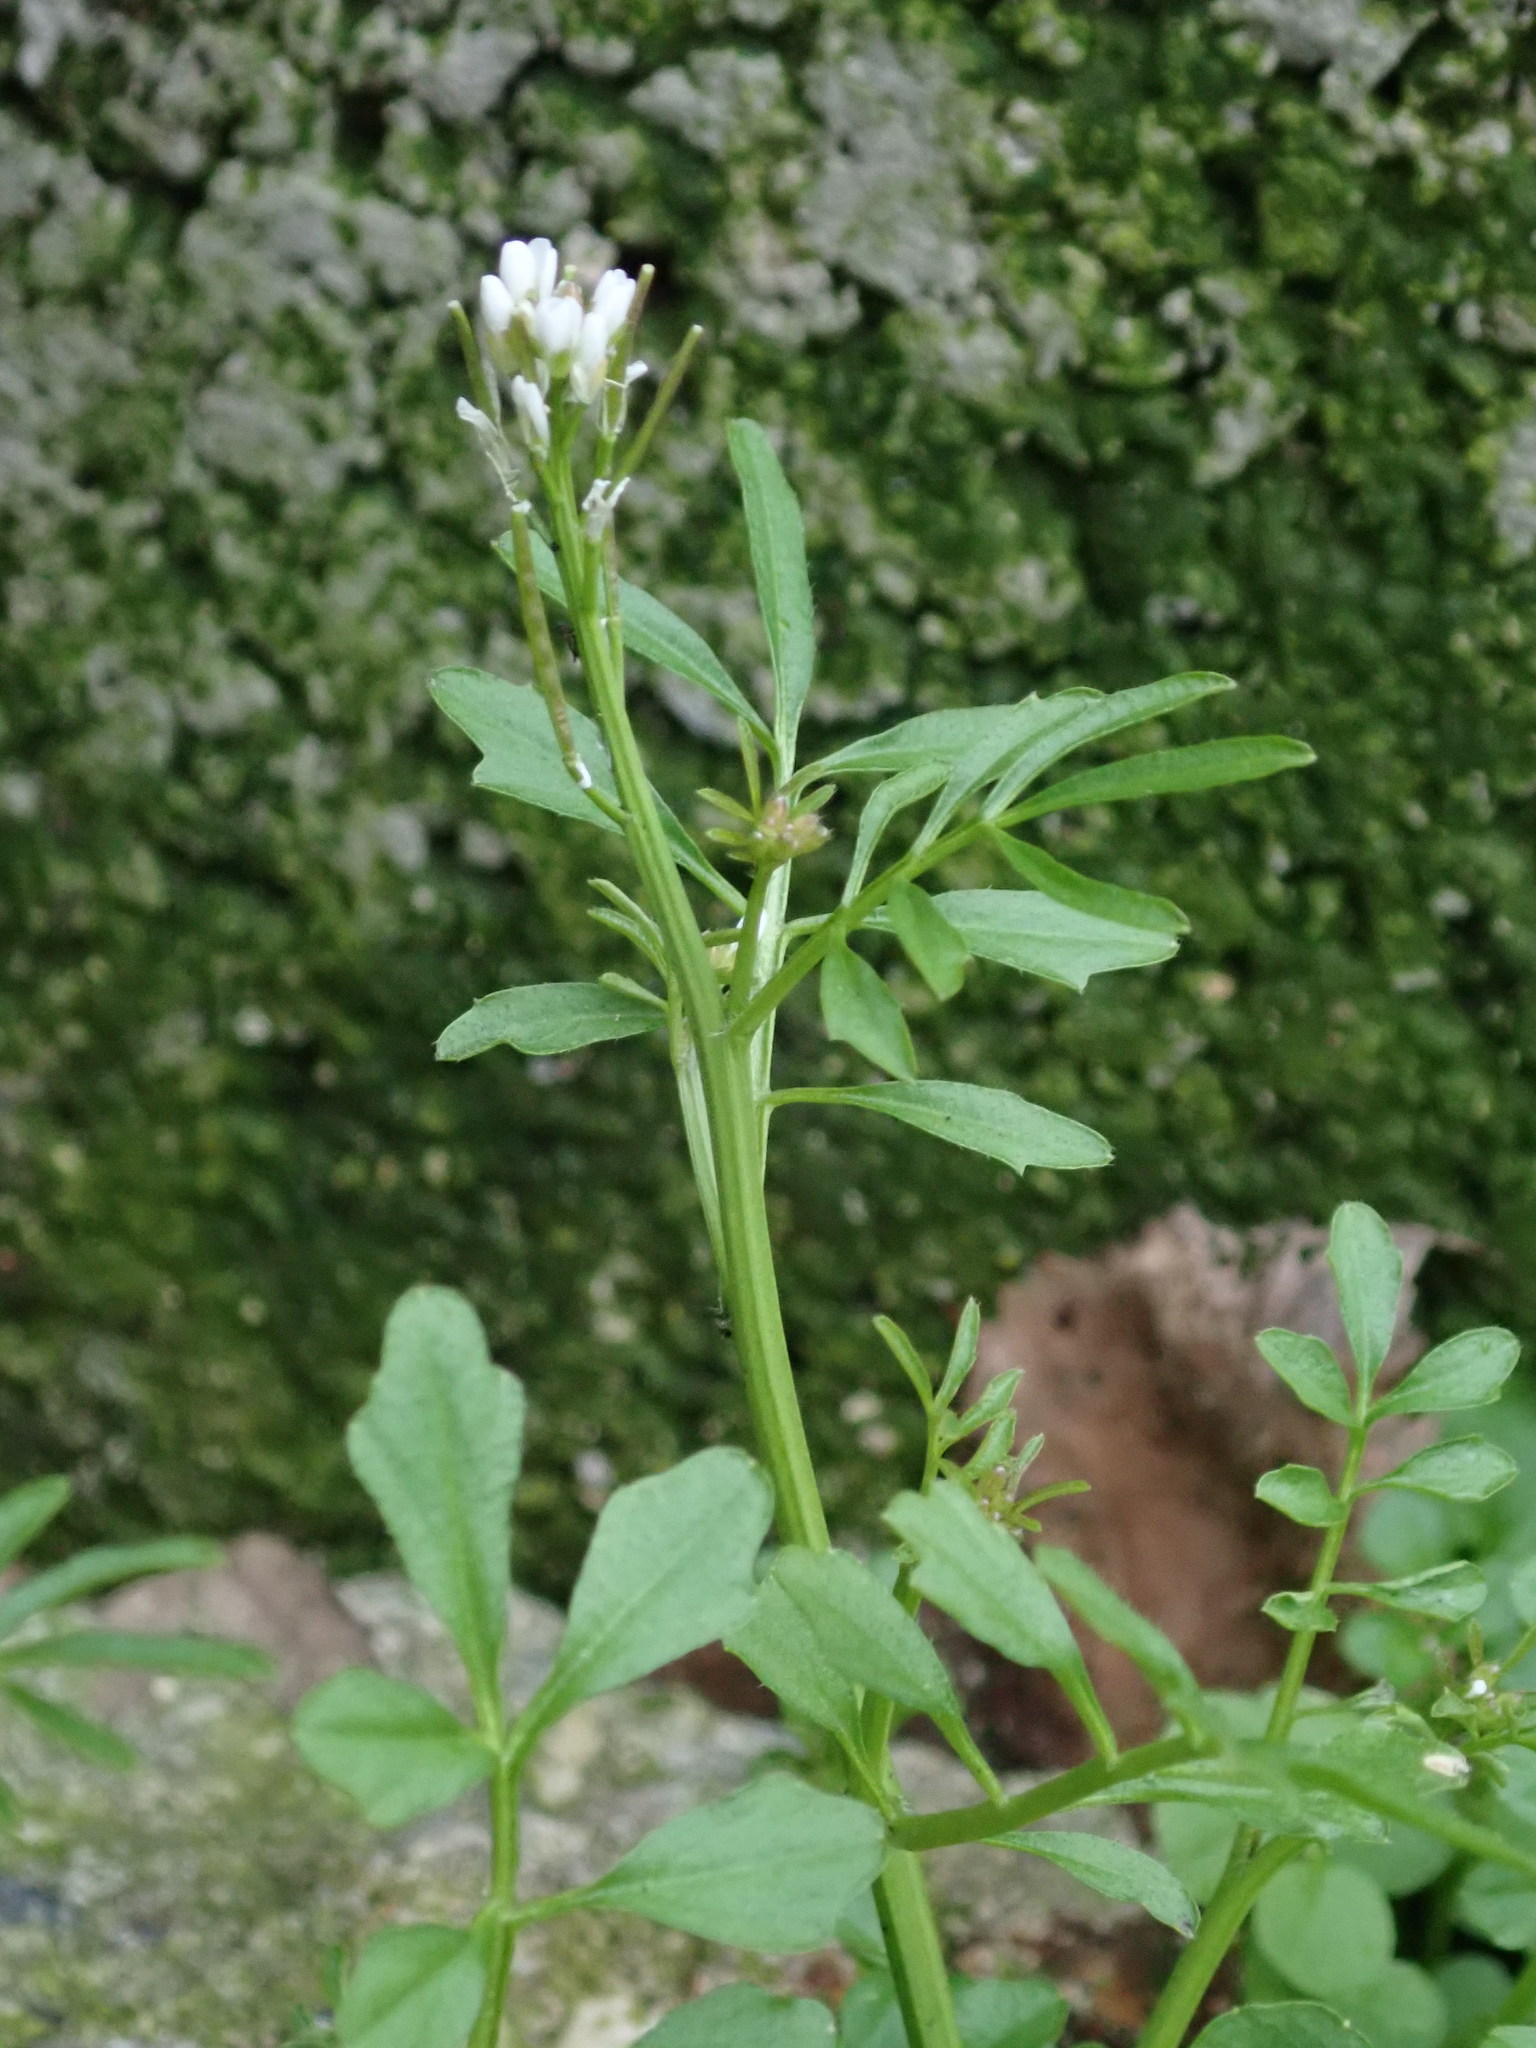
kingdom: Plantae
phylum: Tracheophyta
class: Magnoliopsida
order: Brassicales
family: Brassicaceae
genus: Cardamine
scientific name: Cardamine hirsuta
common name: Hairy bittercress
